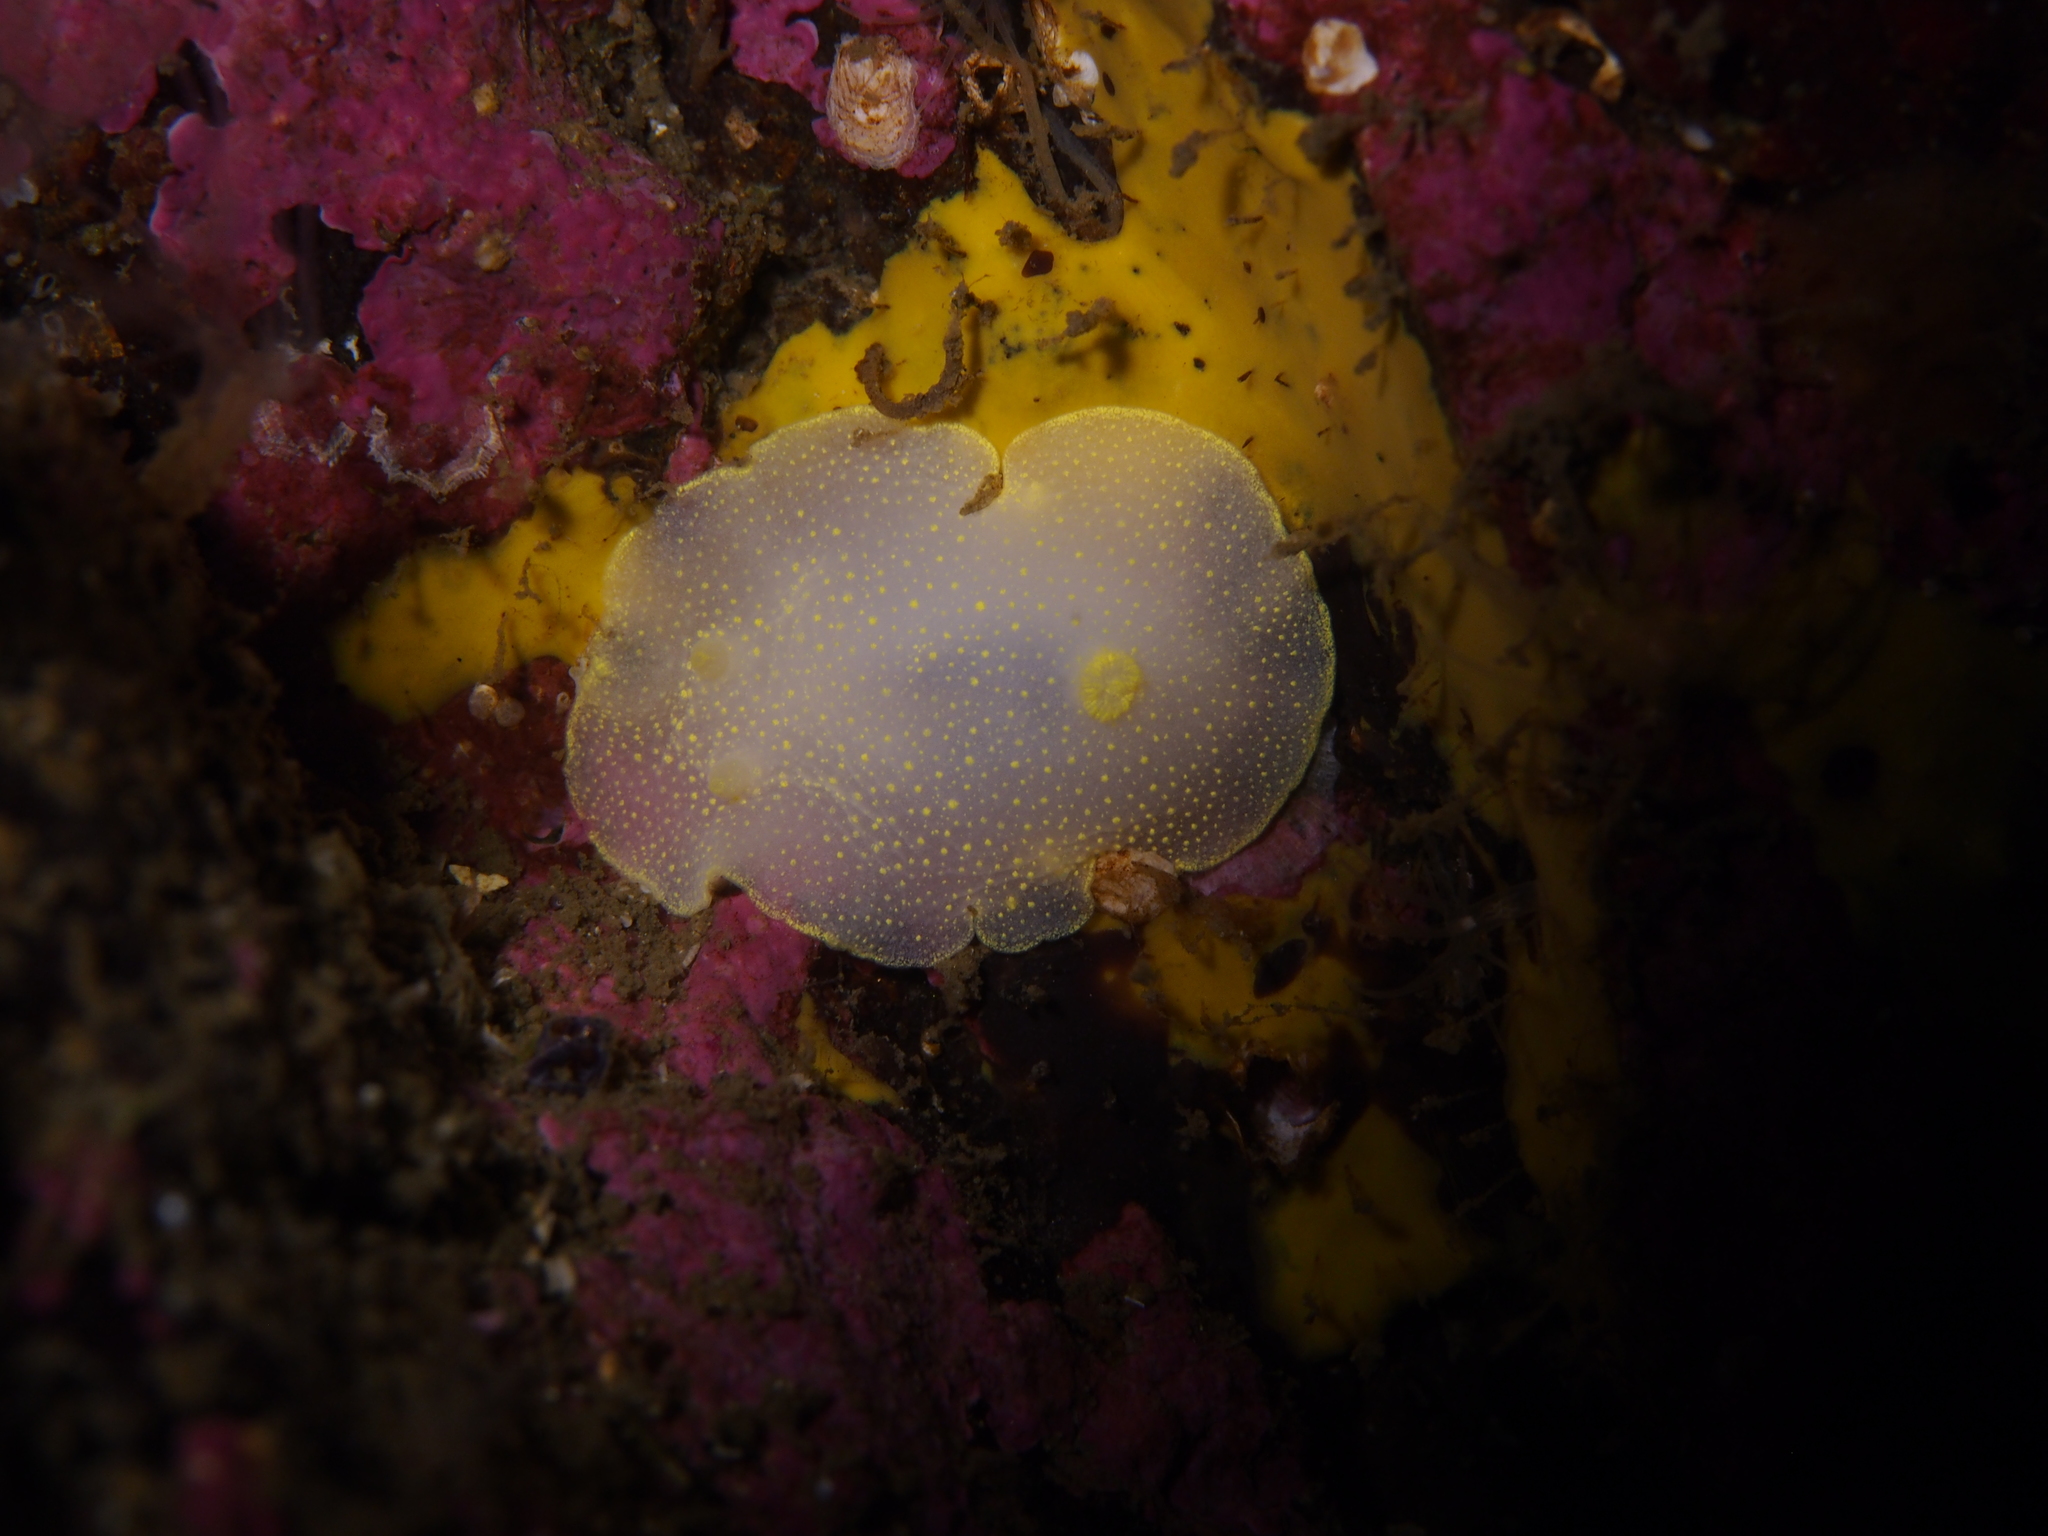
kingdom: Animalia
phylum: Mollusca
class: Gastropoda
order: Nudibranchia
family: Cadlinidae
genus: Cadlina
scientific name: Cadlina laevis
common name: White atlantic cadlina
